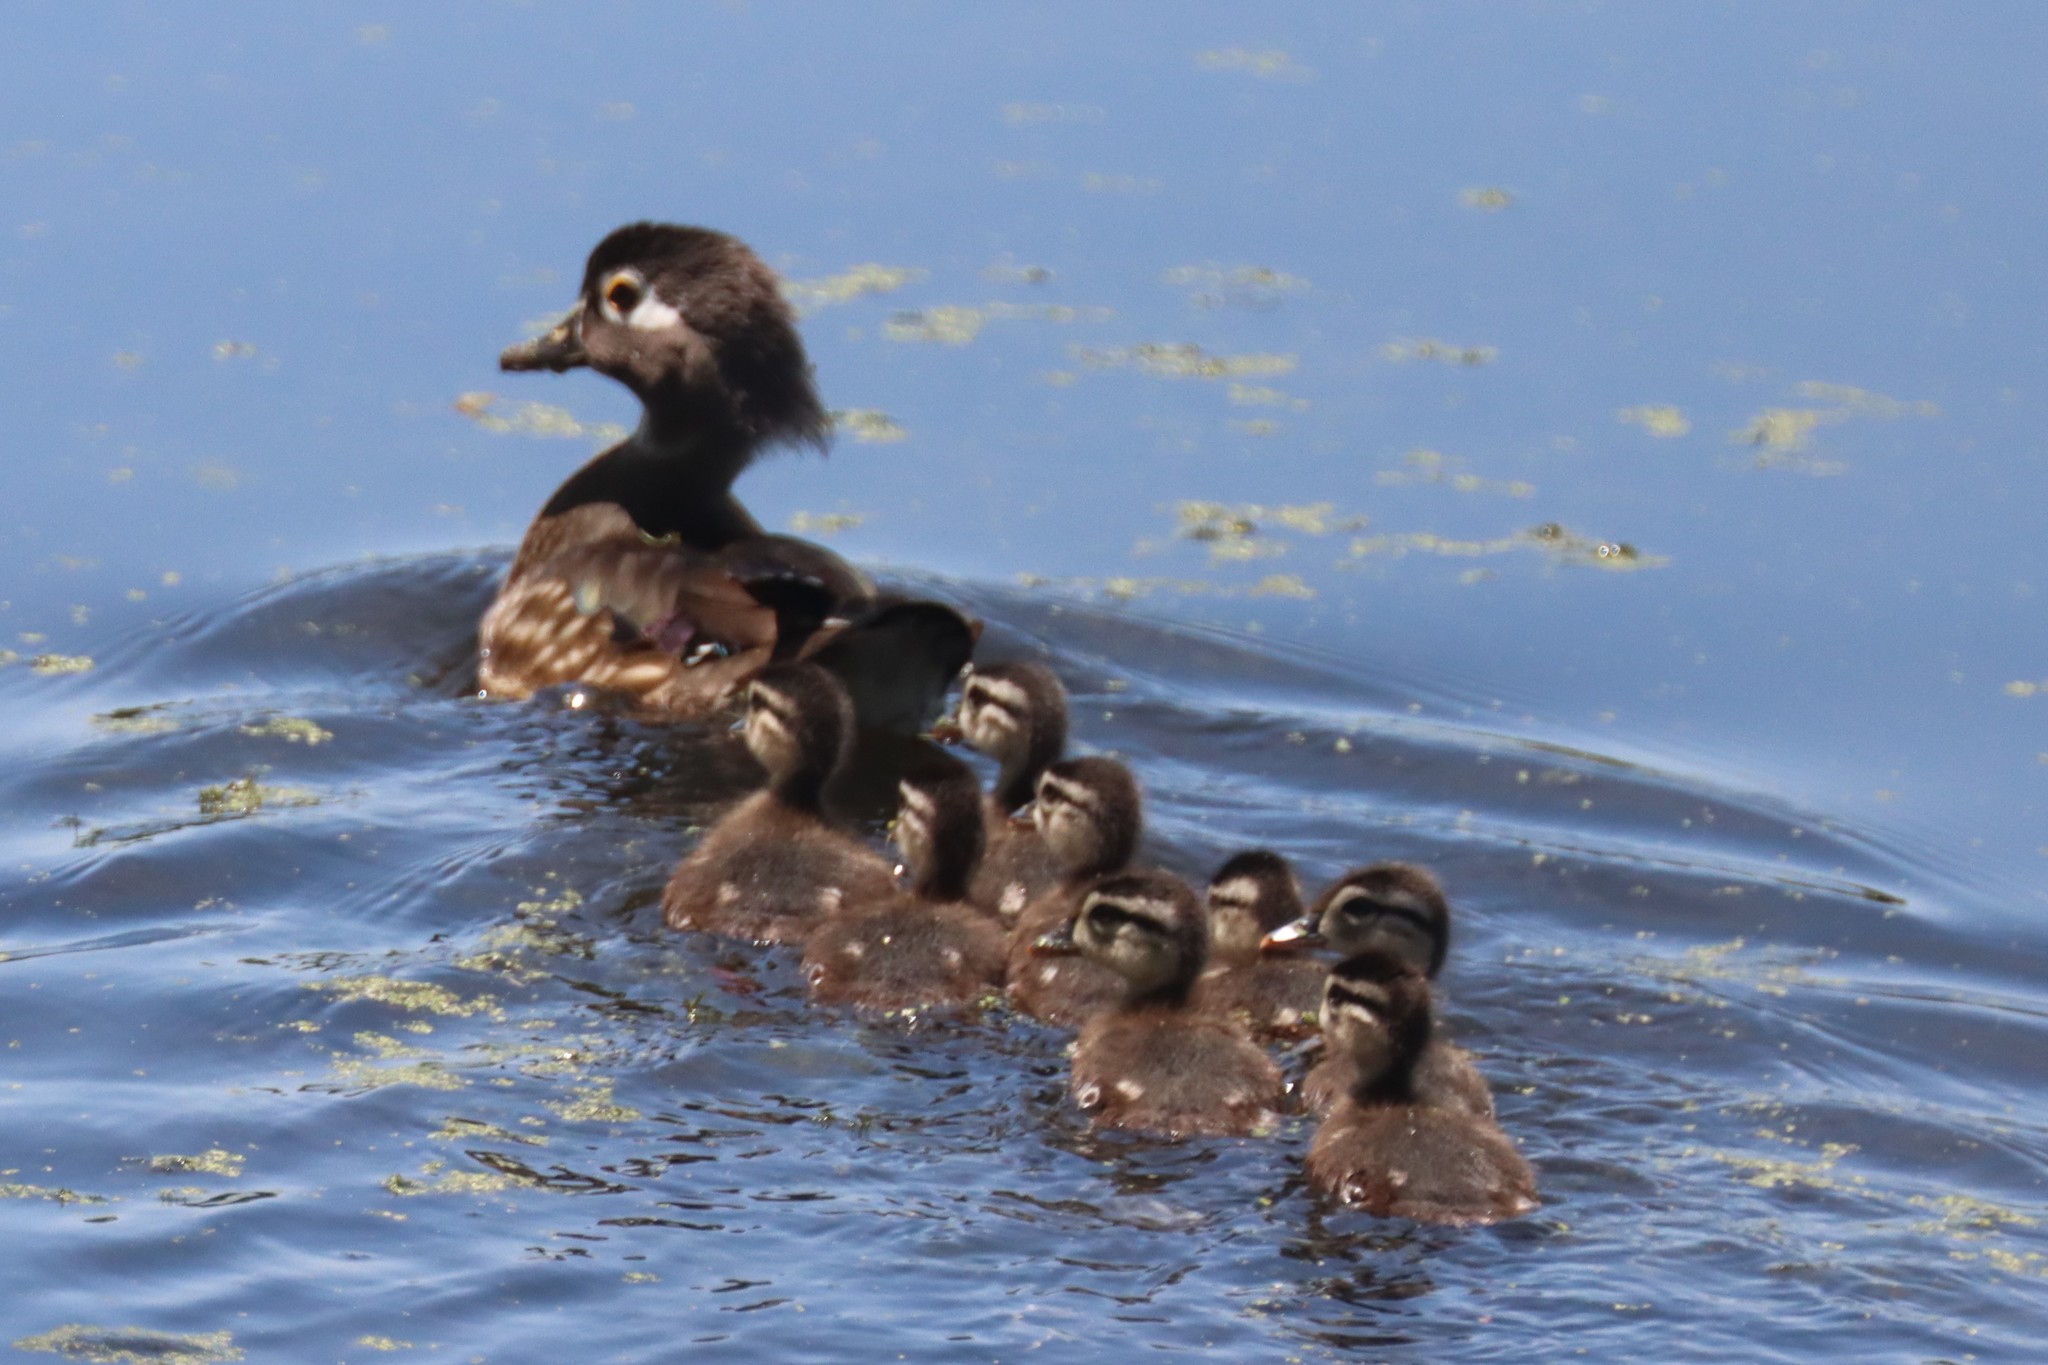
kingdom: Animalia
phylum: Chordata
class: Aves
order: Anseriformes
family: Anatidae
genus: Aix
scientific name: Aix sponsa
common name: Wood duck
